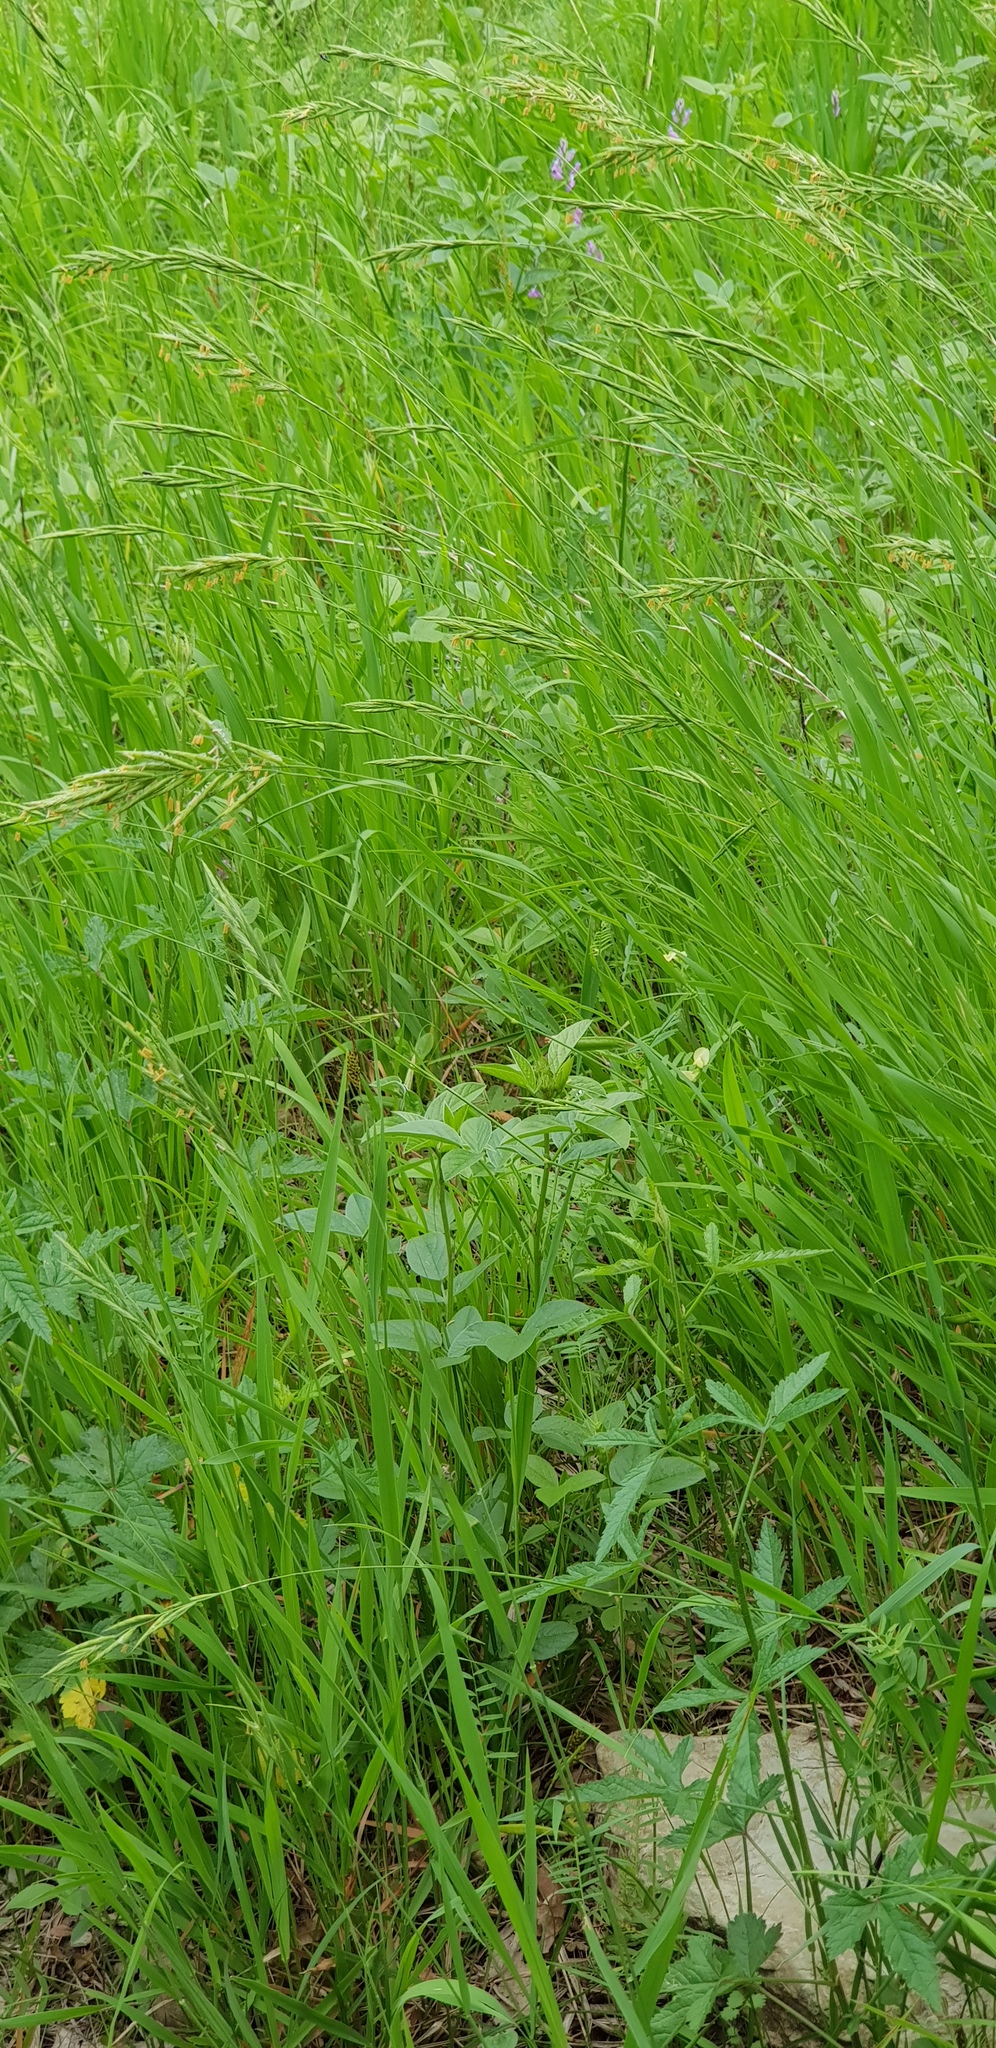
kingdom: Plantae
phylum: Tracheophyta
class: Liliopsida
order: Poales
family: Poaceae
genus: Brachypodium
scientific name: Brachypodium pinnatum
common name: Tor grass
